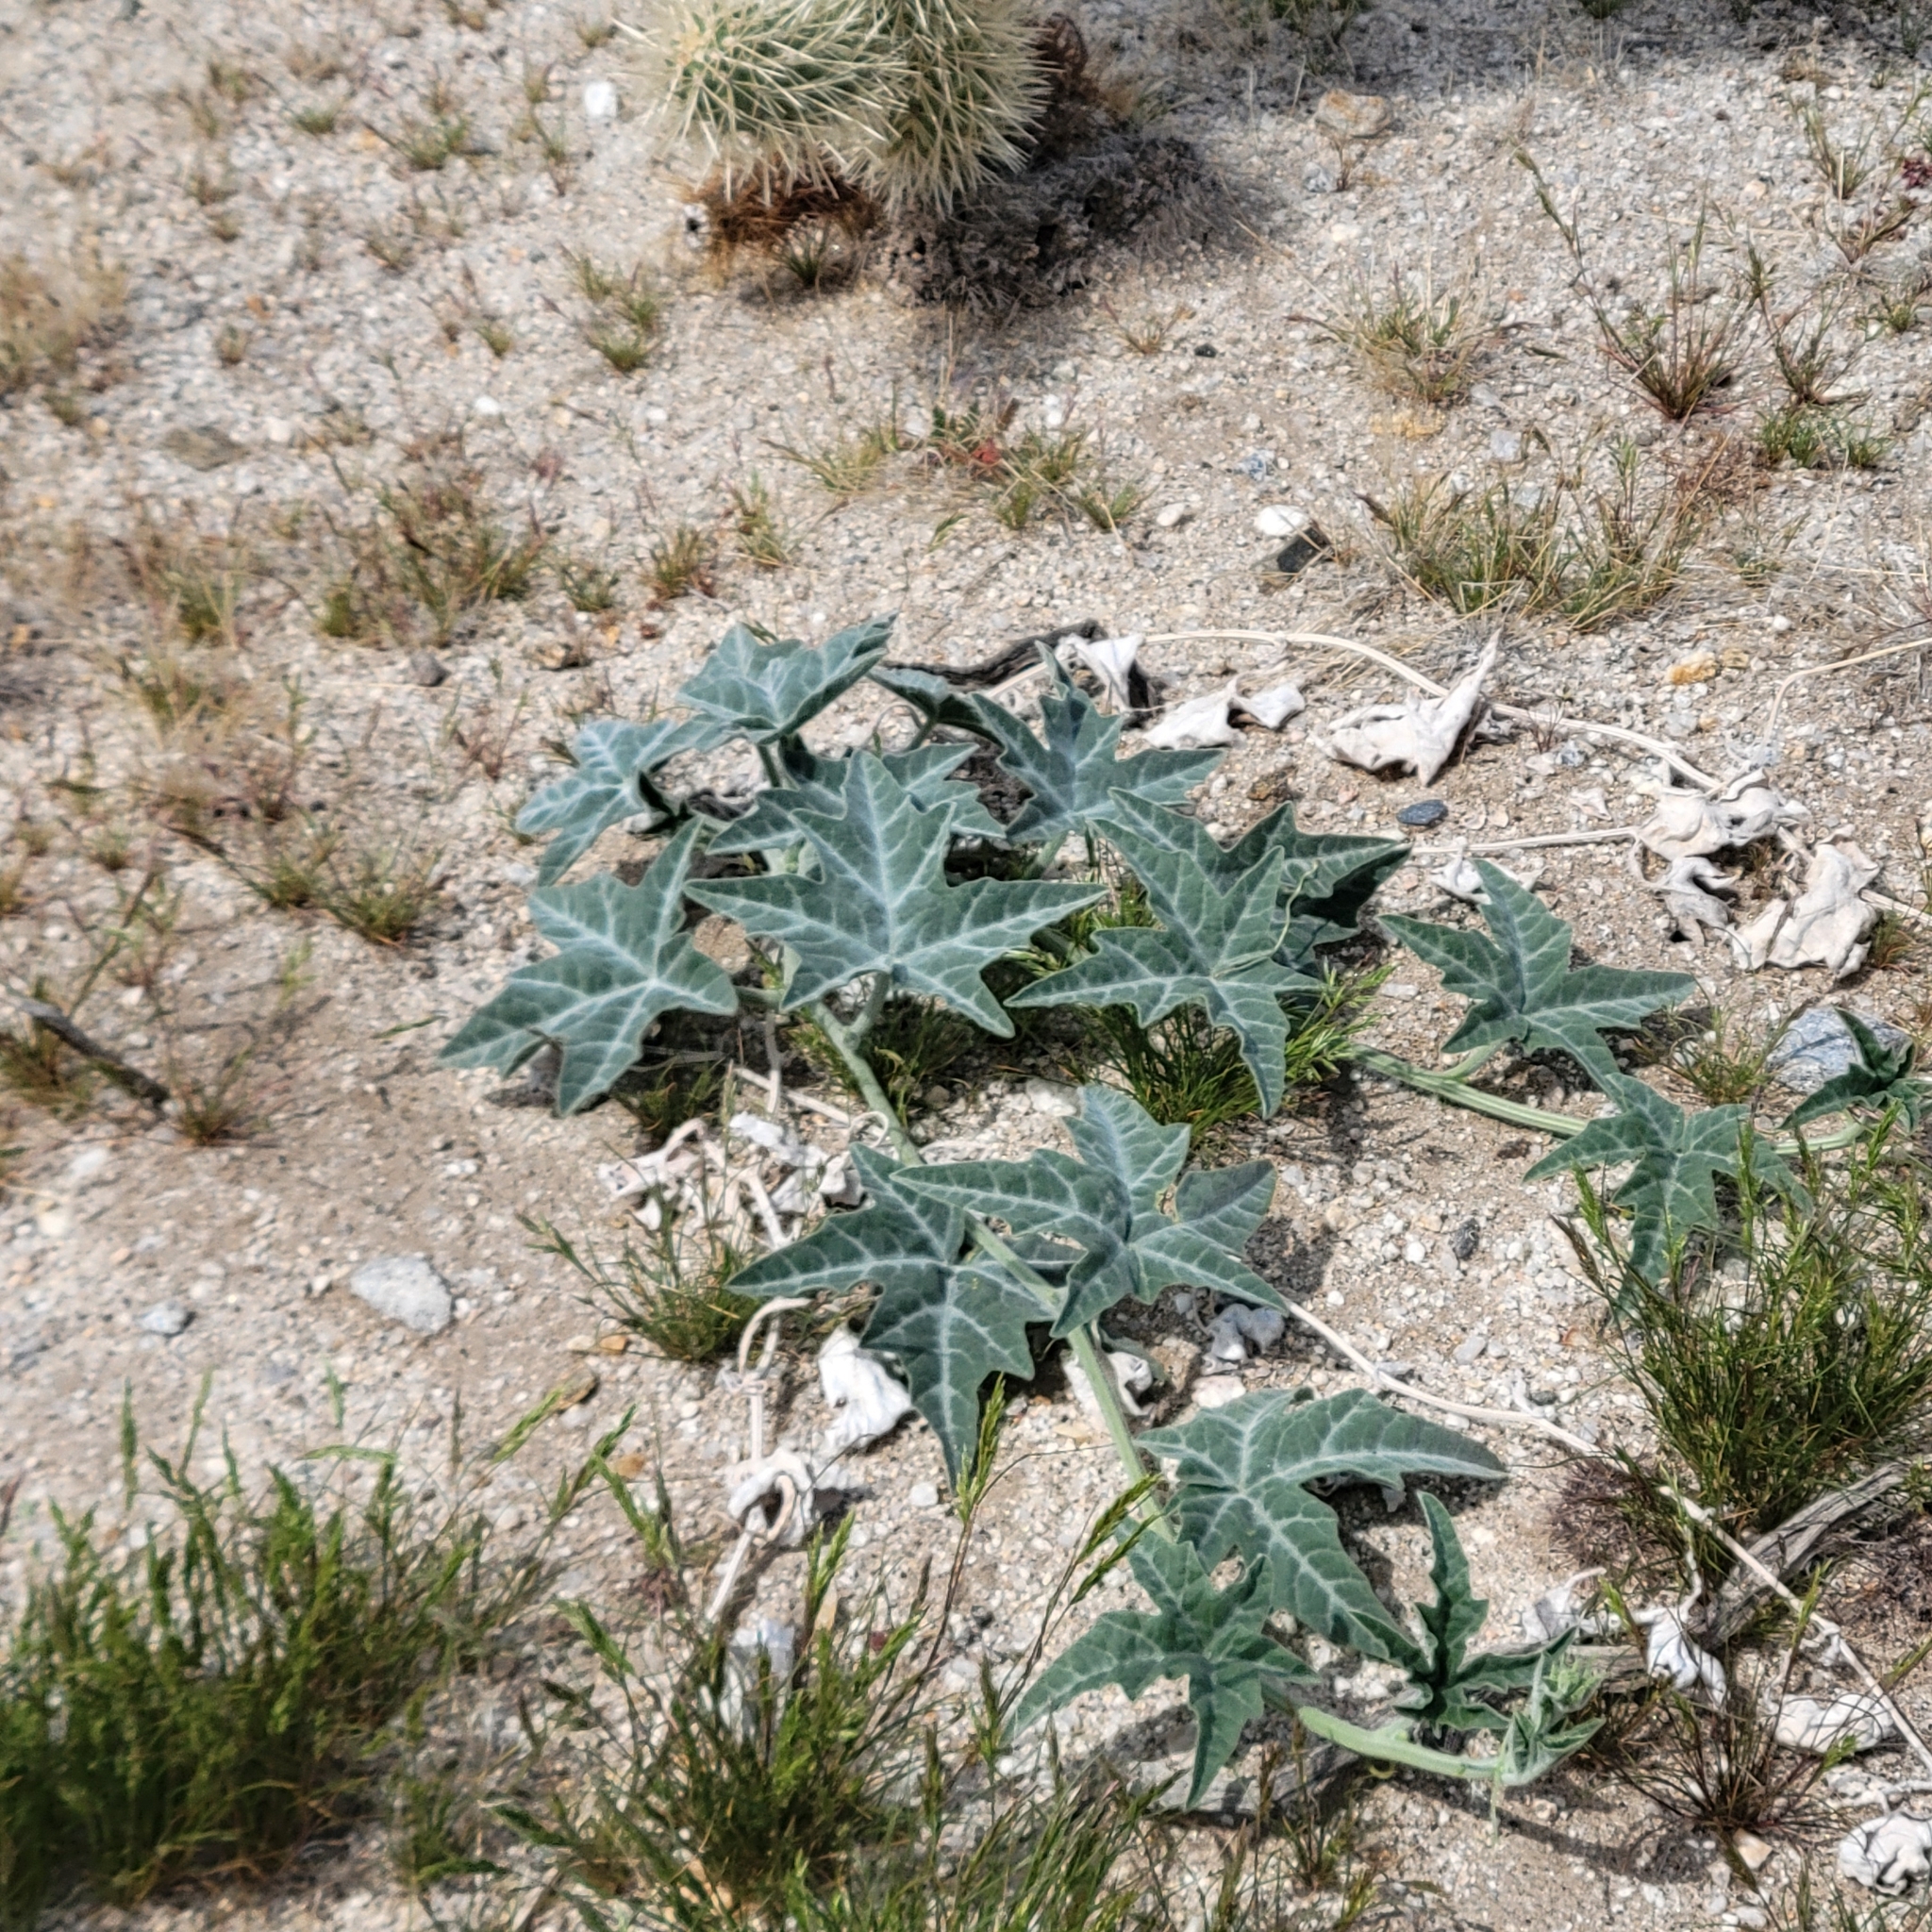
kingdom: Plantae
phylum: Tracheophyta
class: Magnoliopsida
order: Cucurbitales
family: Cucurbitaceae
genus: Cucurbita
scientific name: Cucurbita palmata
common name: Coyote-melon
